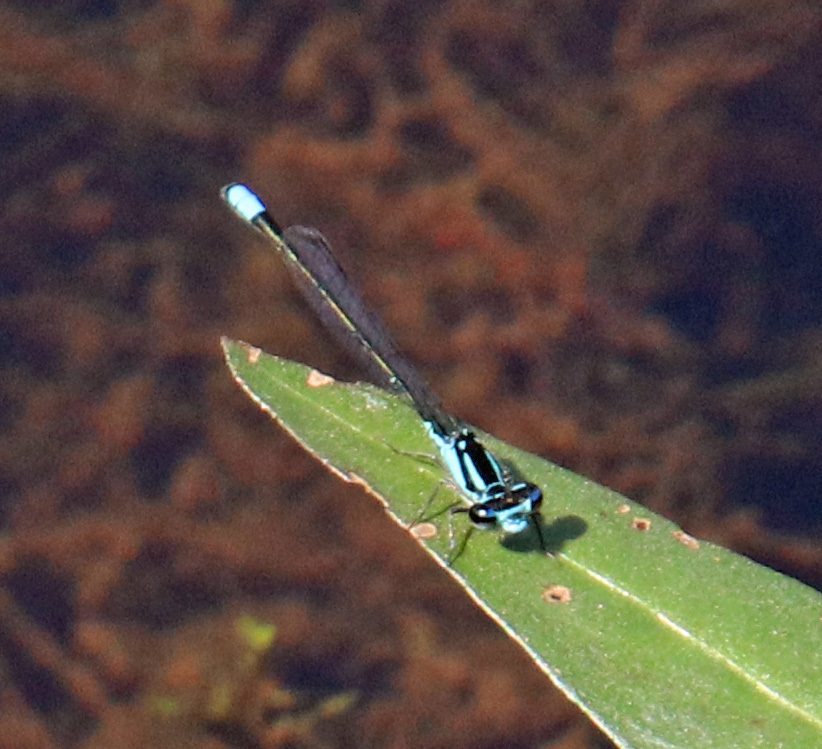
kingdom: Animalia
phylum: Arthropoda
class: Insecta
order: Odonata
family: Coenagrionidae
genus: Enallagma
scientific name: Enallagma geminatum
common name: Skimming bluet
